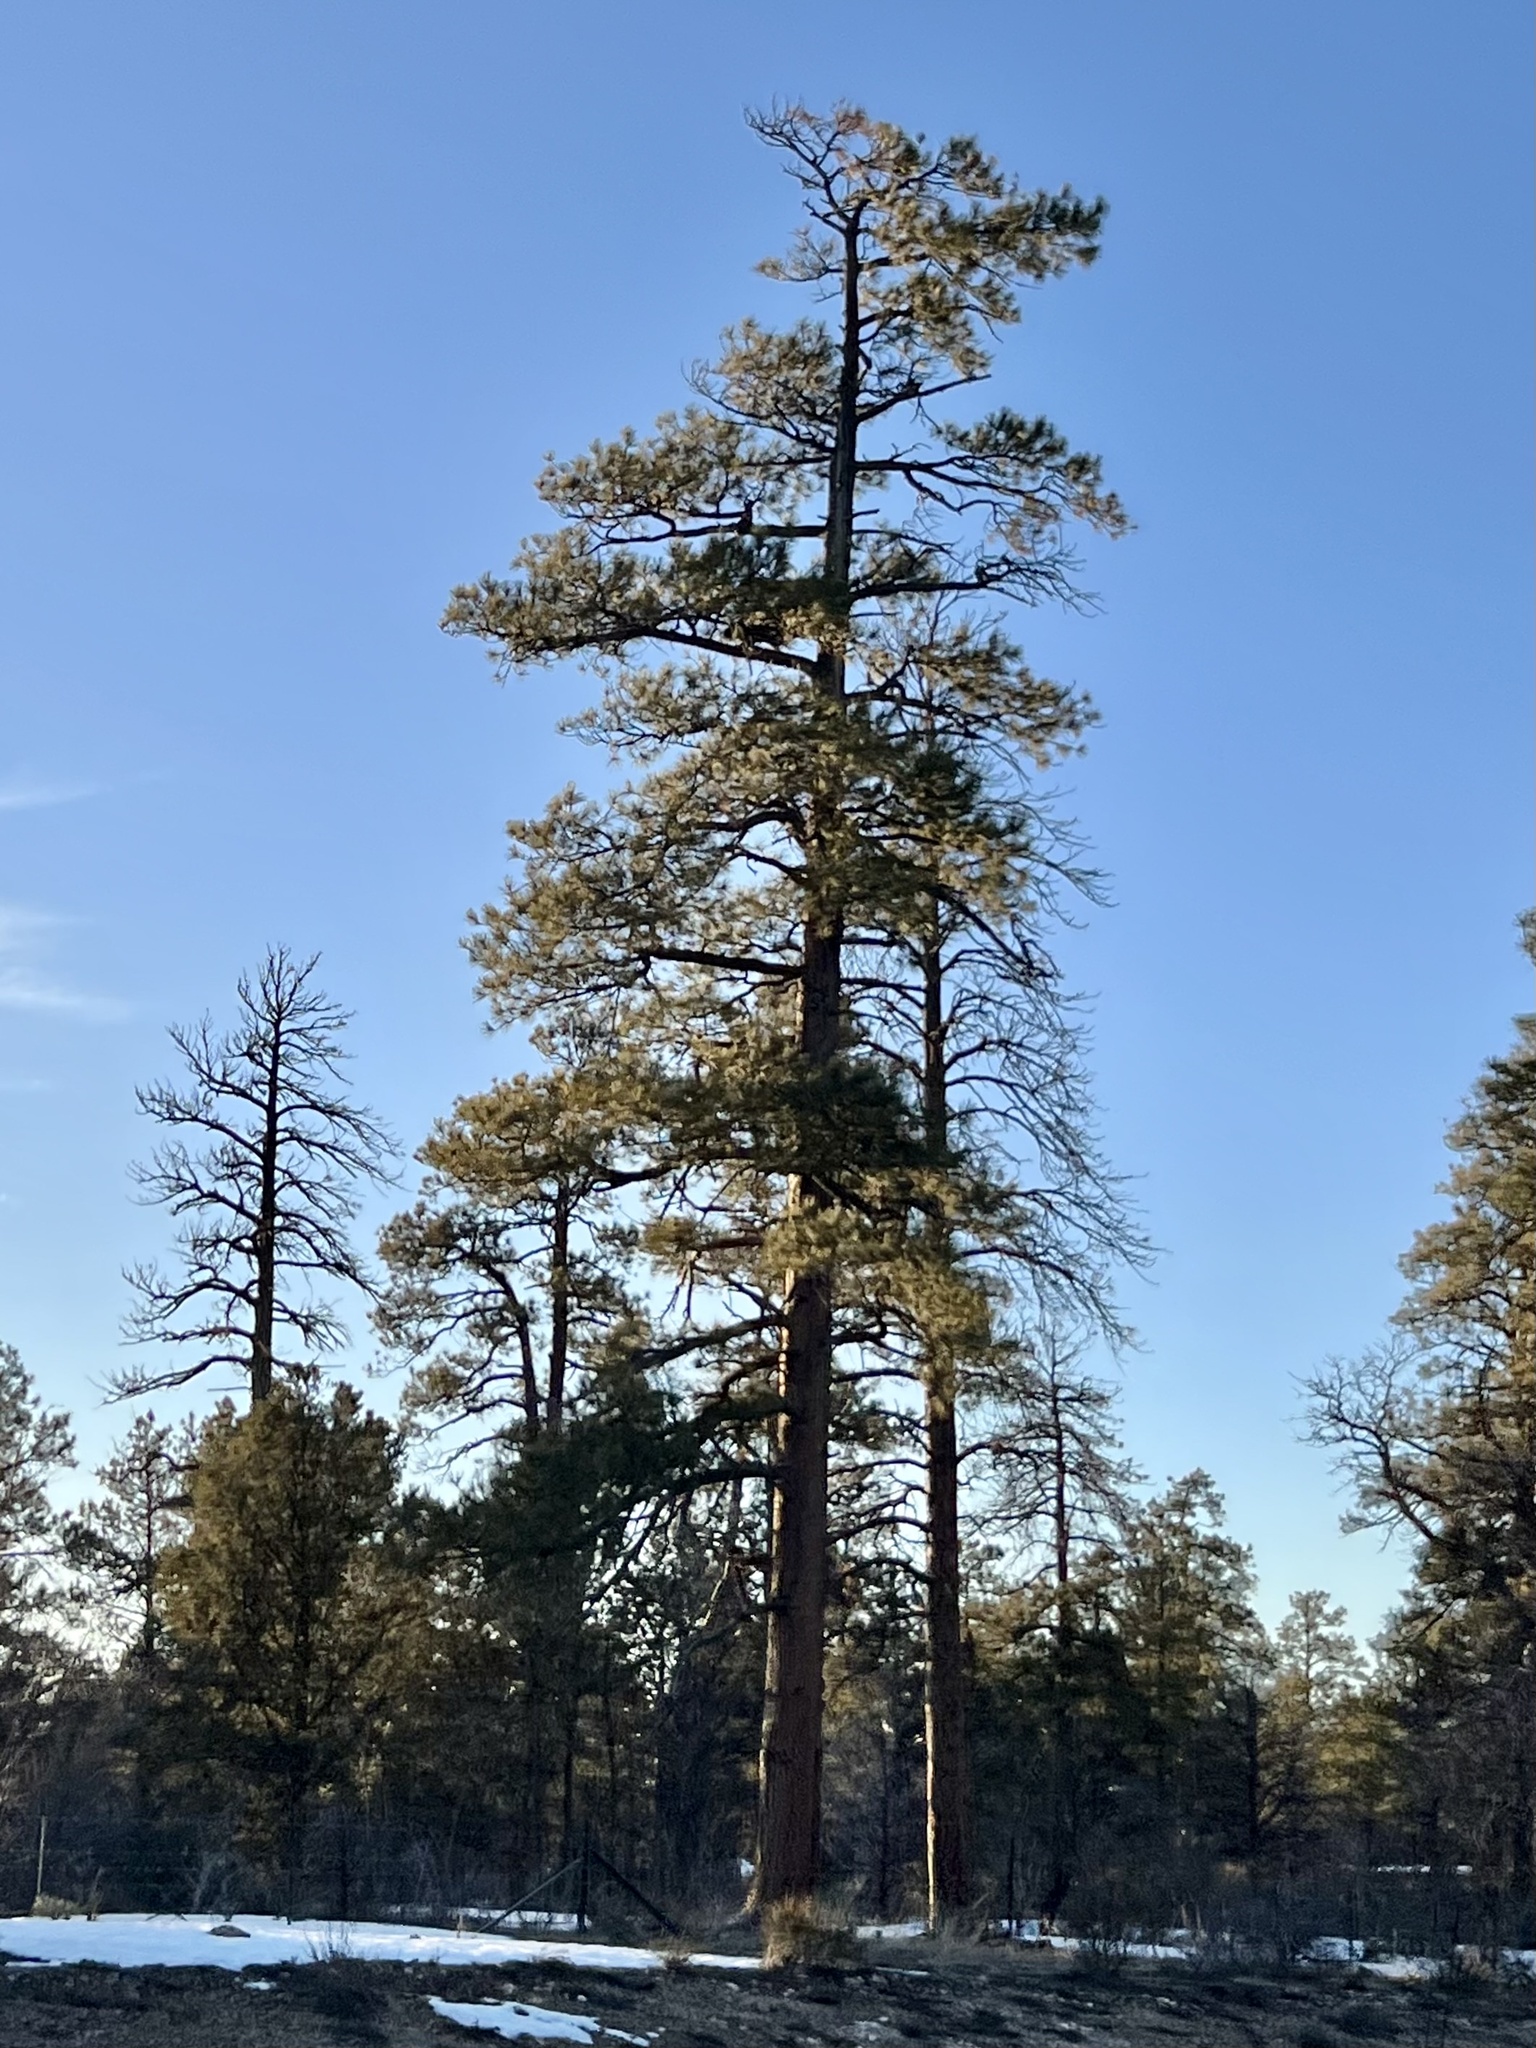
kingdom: Plantae
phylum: Tracheophyta
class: Pinopsida
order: Pinales
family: Pinaceae
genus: Pinus
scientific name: Pinus ponderosa
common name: Western yellow-pine
